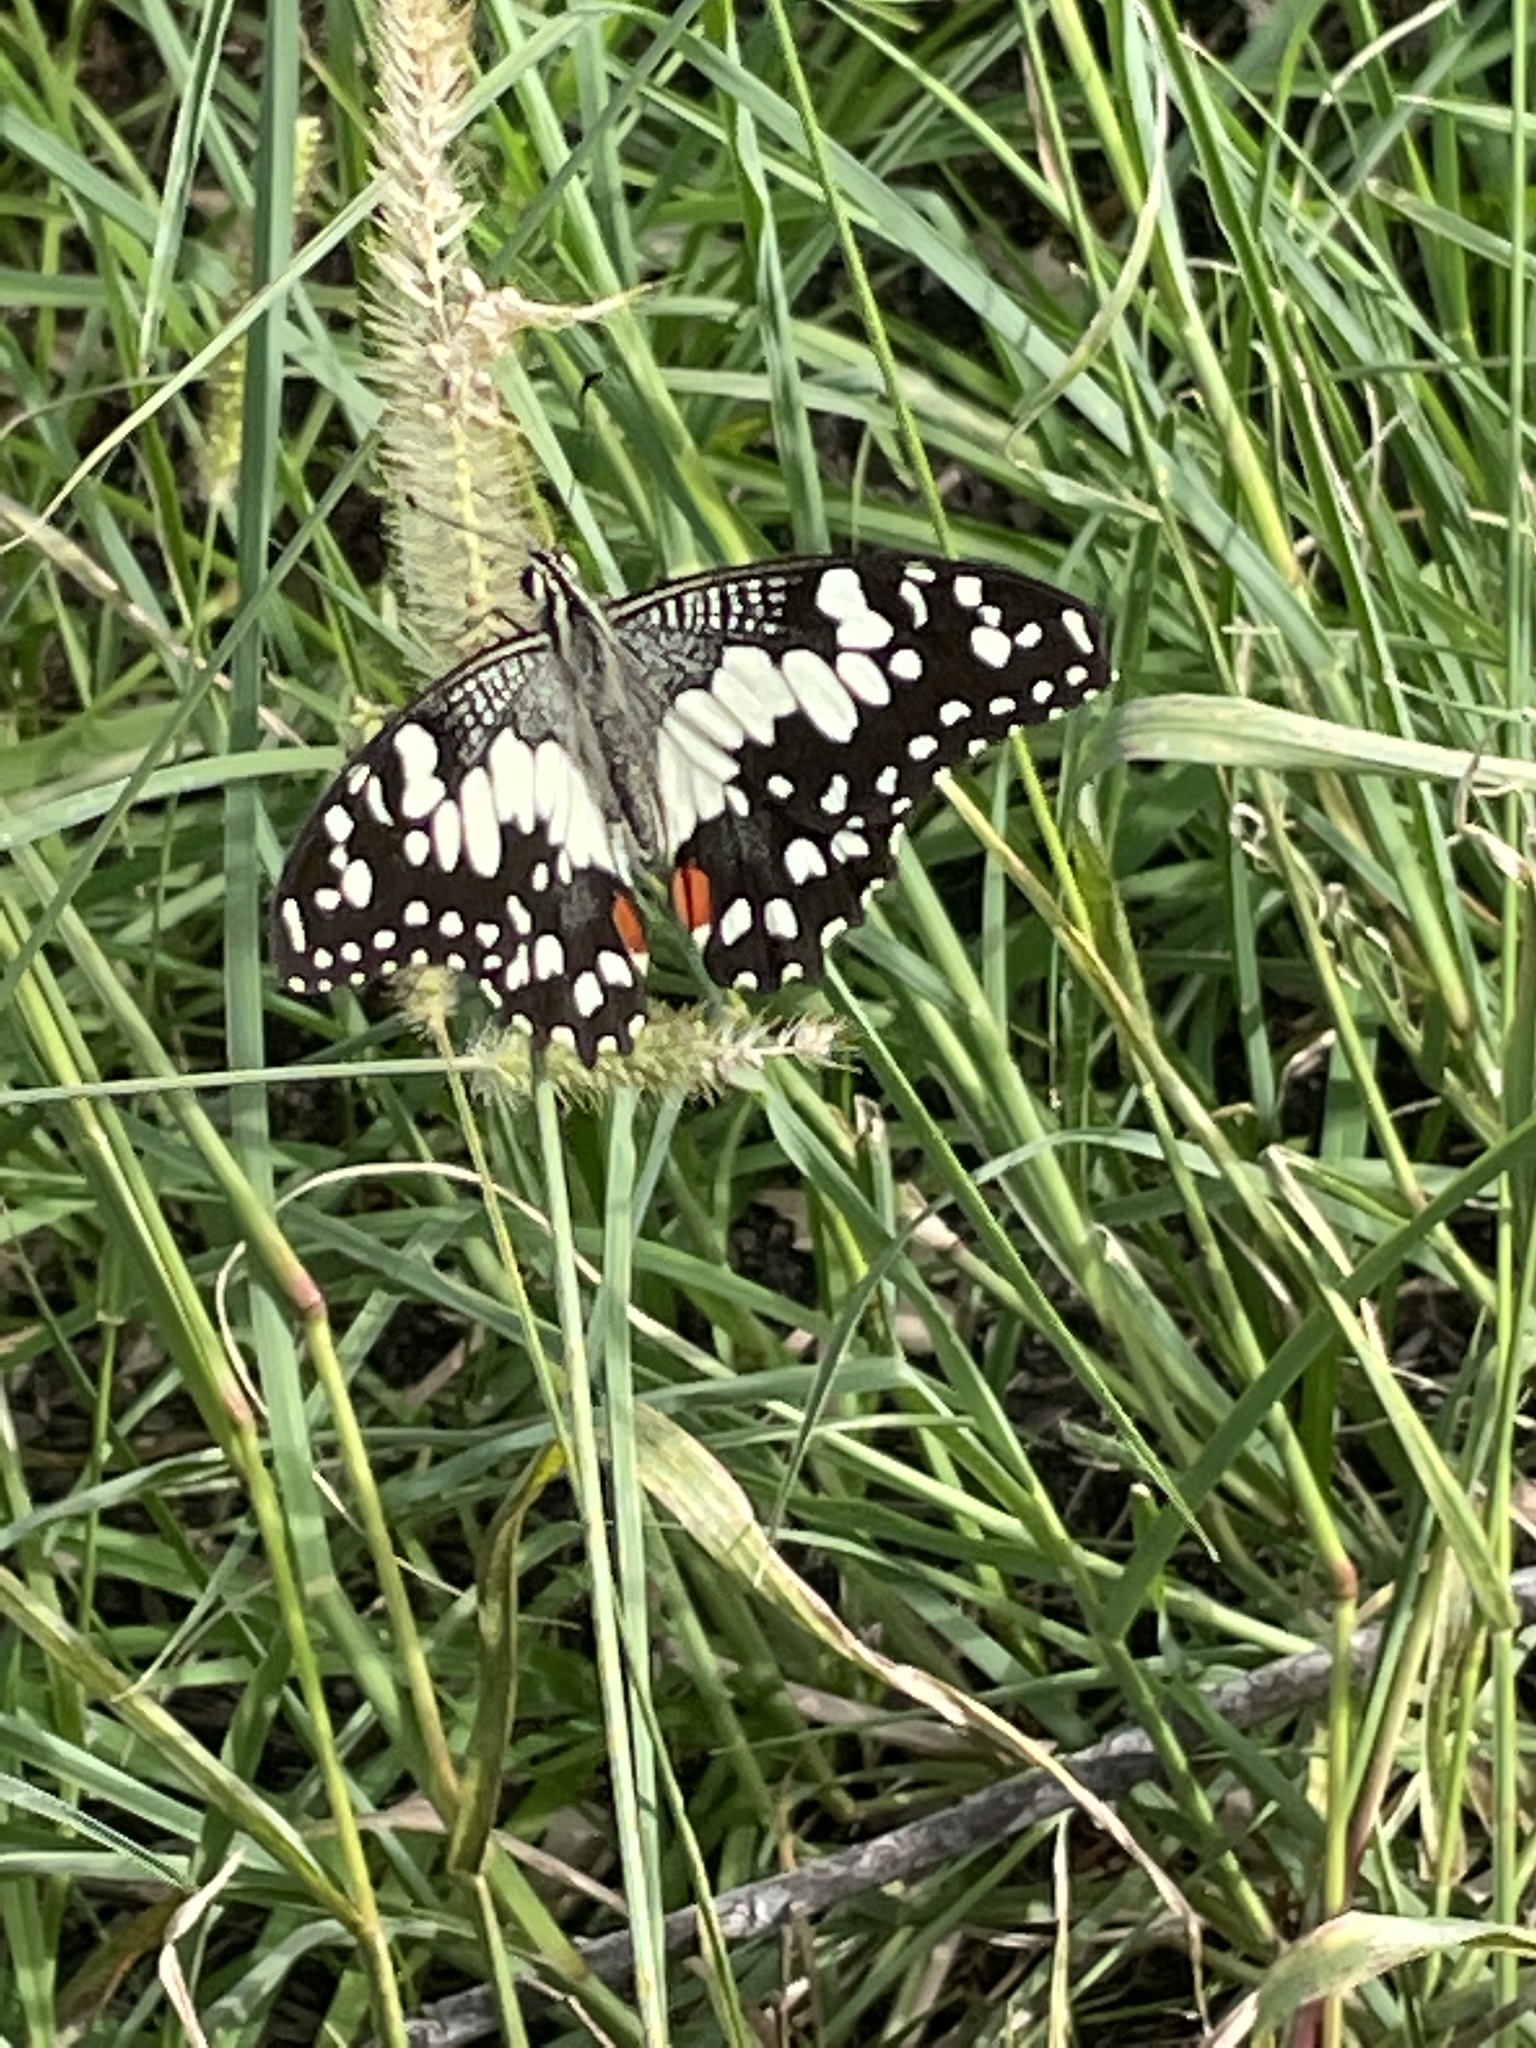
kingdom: Animalia
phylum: Arthropoda
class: Insecta
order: Lepidoptera
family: Papilionidae
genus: Papilio
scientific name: Papilio demoleus
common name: Lime butterfly
